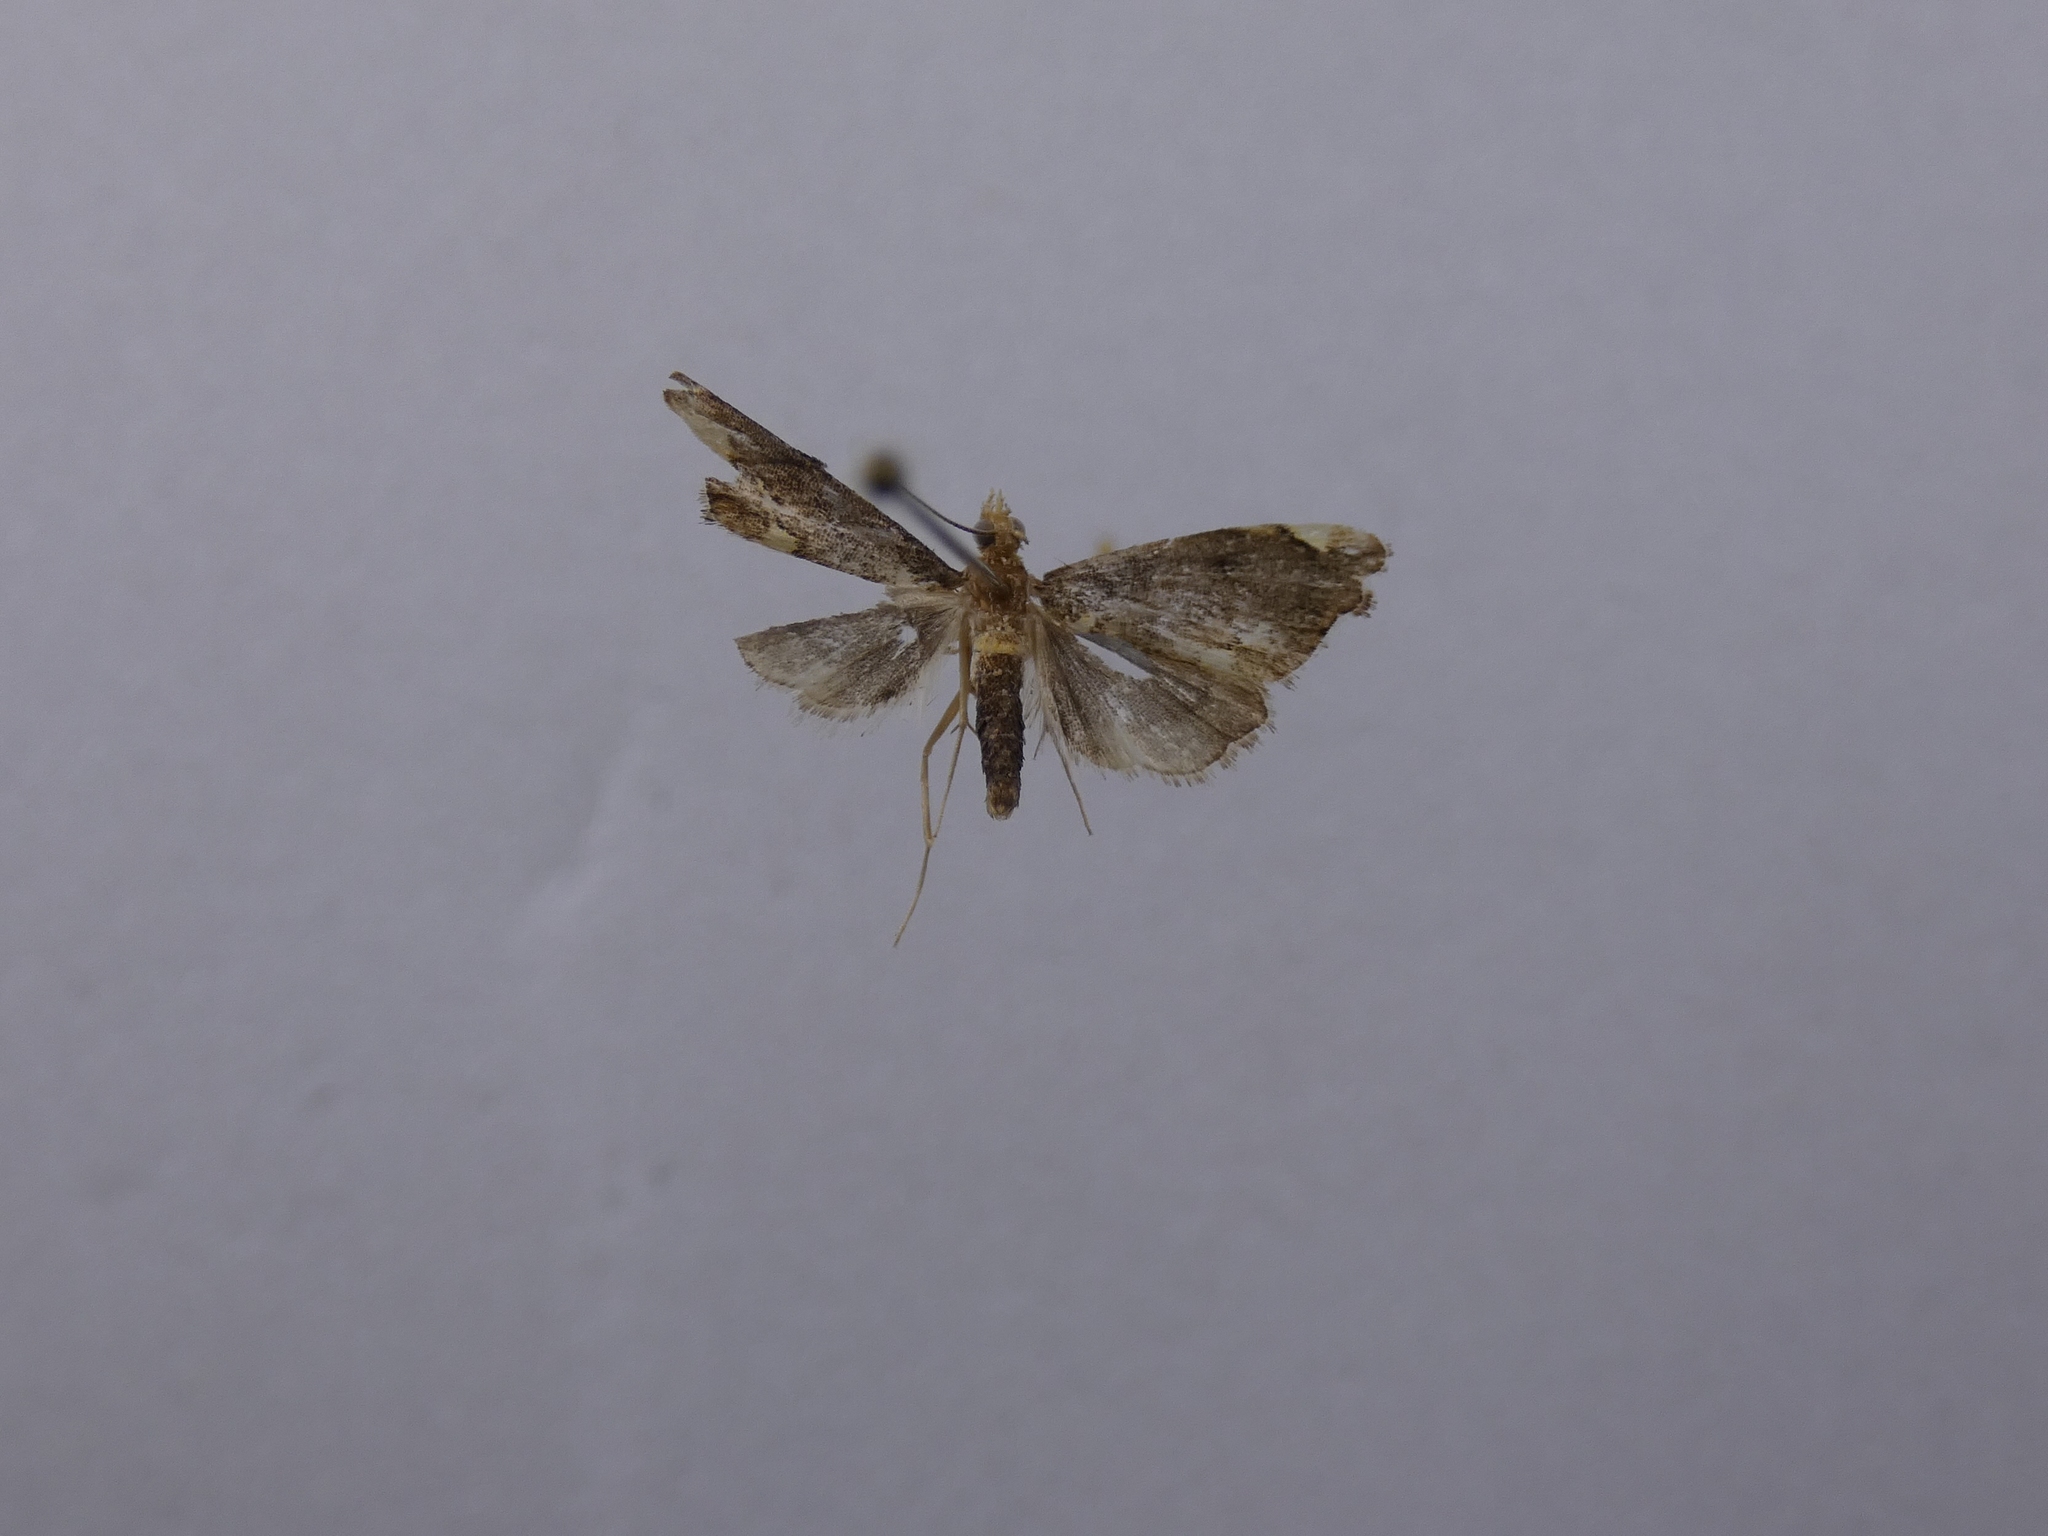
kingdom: Animalia
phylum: Arthropoda
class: Insecta
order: Lepidoptera
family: Crambidae
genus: Glaucocharis
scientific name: Glaucocharis pyrsophanes
